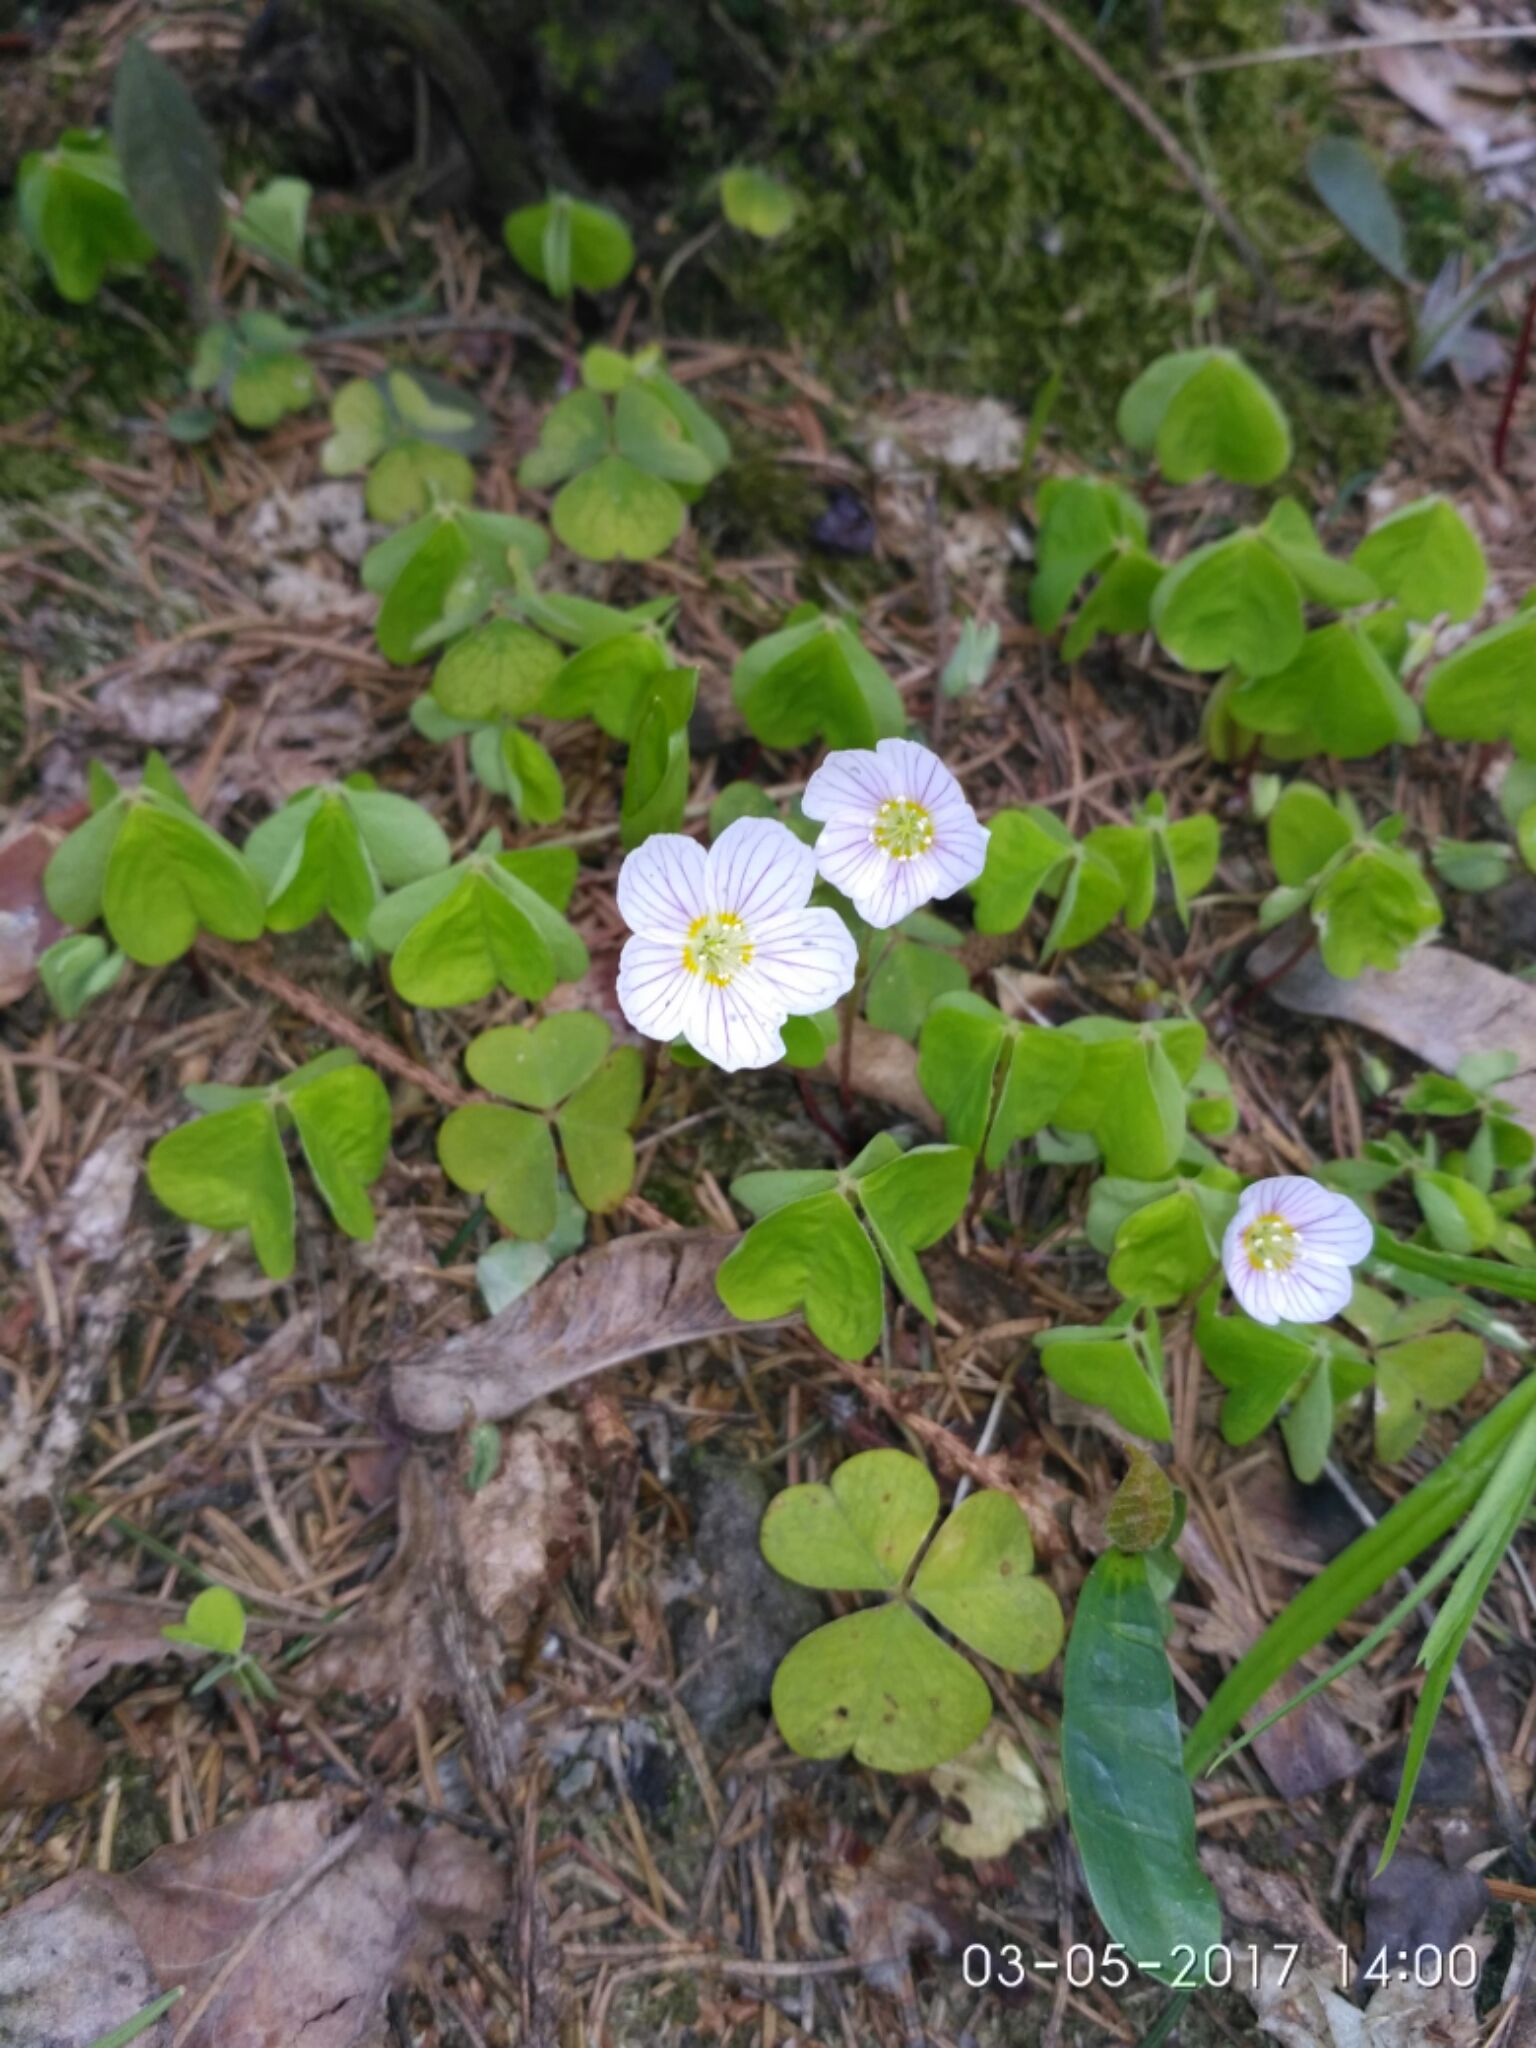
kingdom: Plantae
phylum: Tracheophyta
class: Magnoliopsida
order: Oxalidales
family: Oxalidaceae
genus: Oxalis
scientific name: Oxalis acetosella
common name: Wood-sorrel
